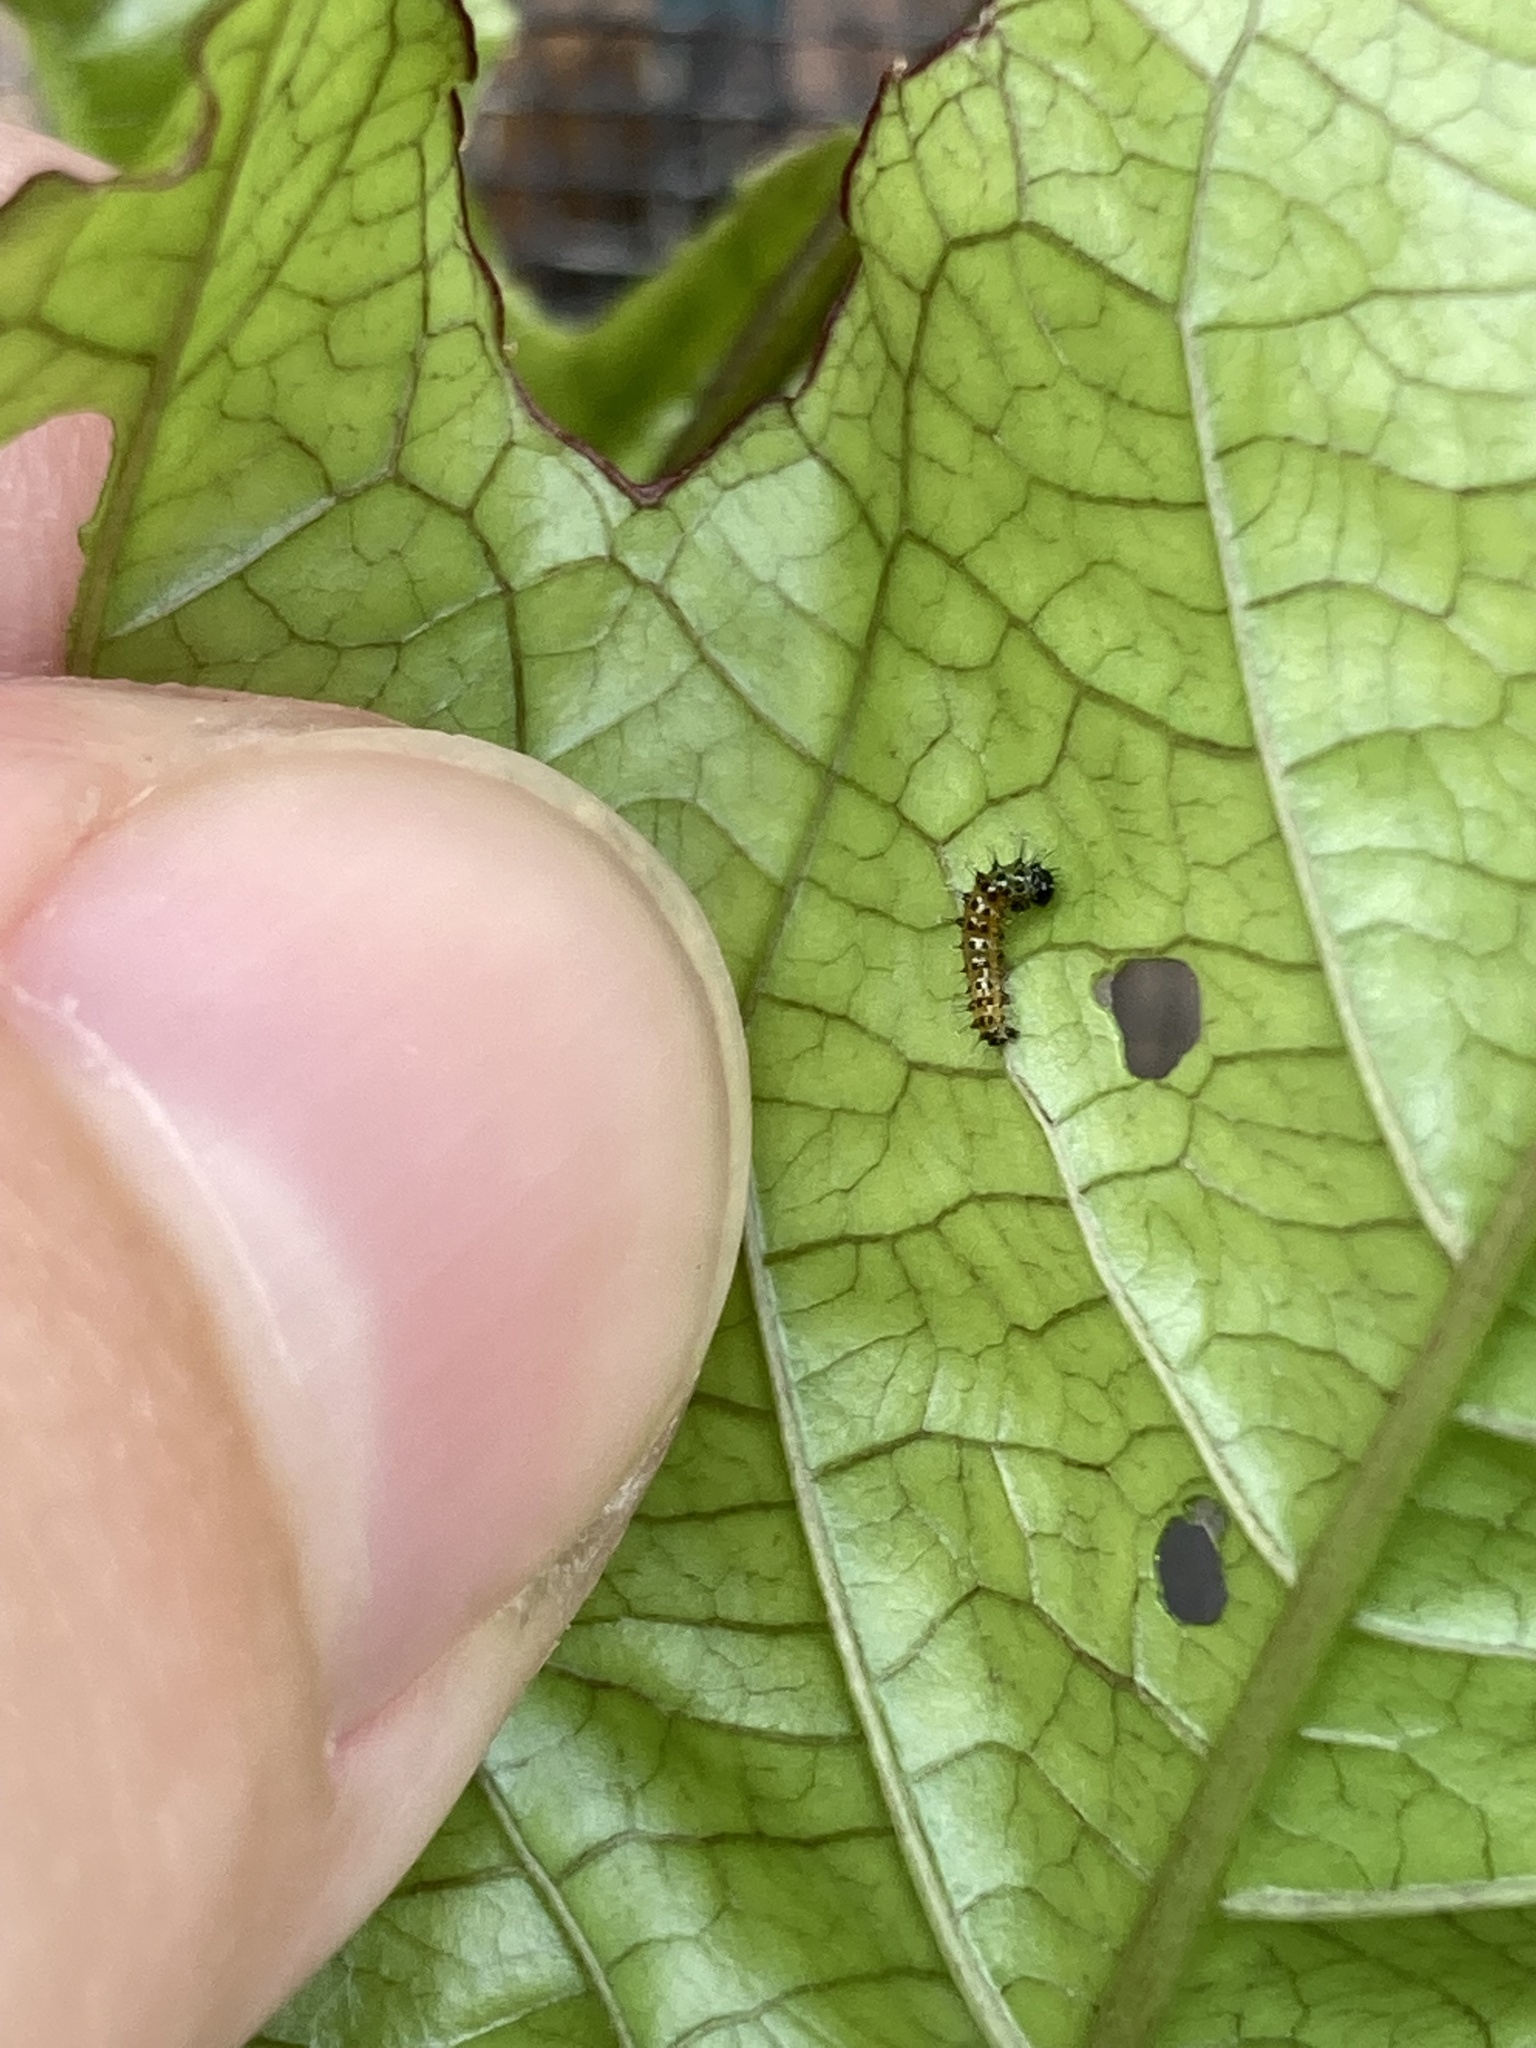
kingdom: Animalia
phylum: Arthropoda
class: Insecta
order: Lepidoptera
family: Nymphalidae
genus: Dione
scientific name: Dione vanillae
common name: Gulf fritillary
